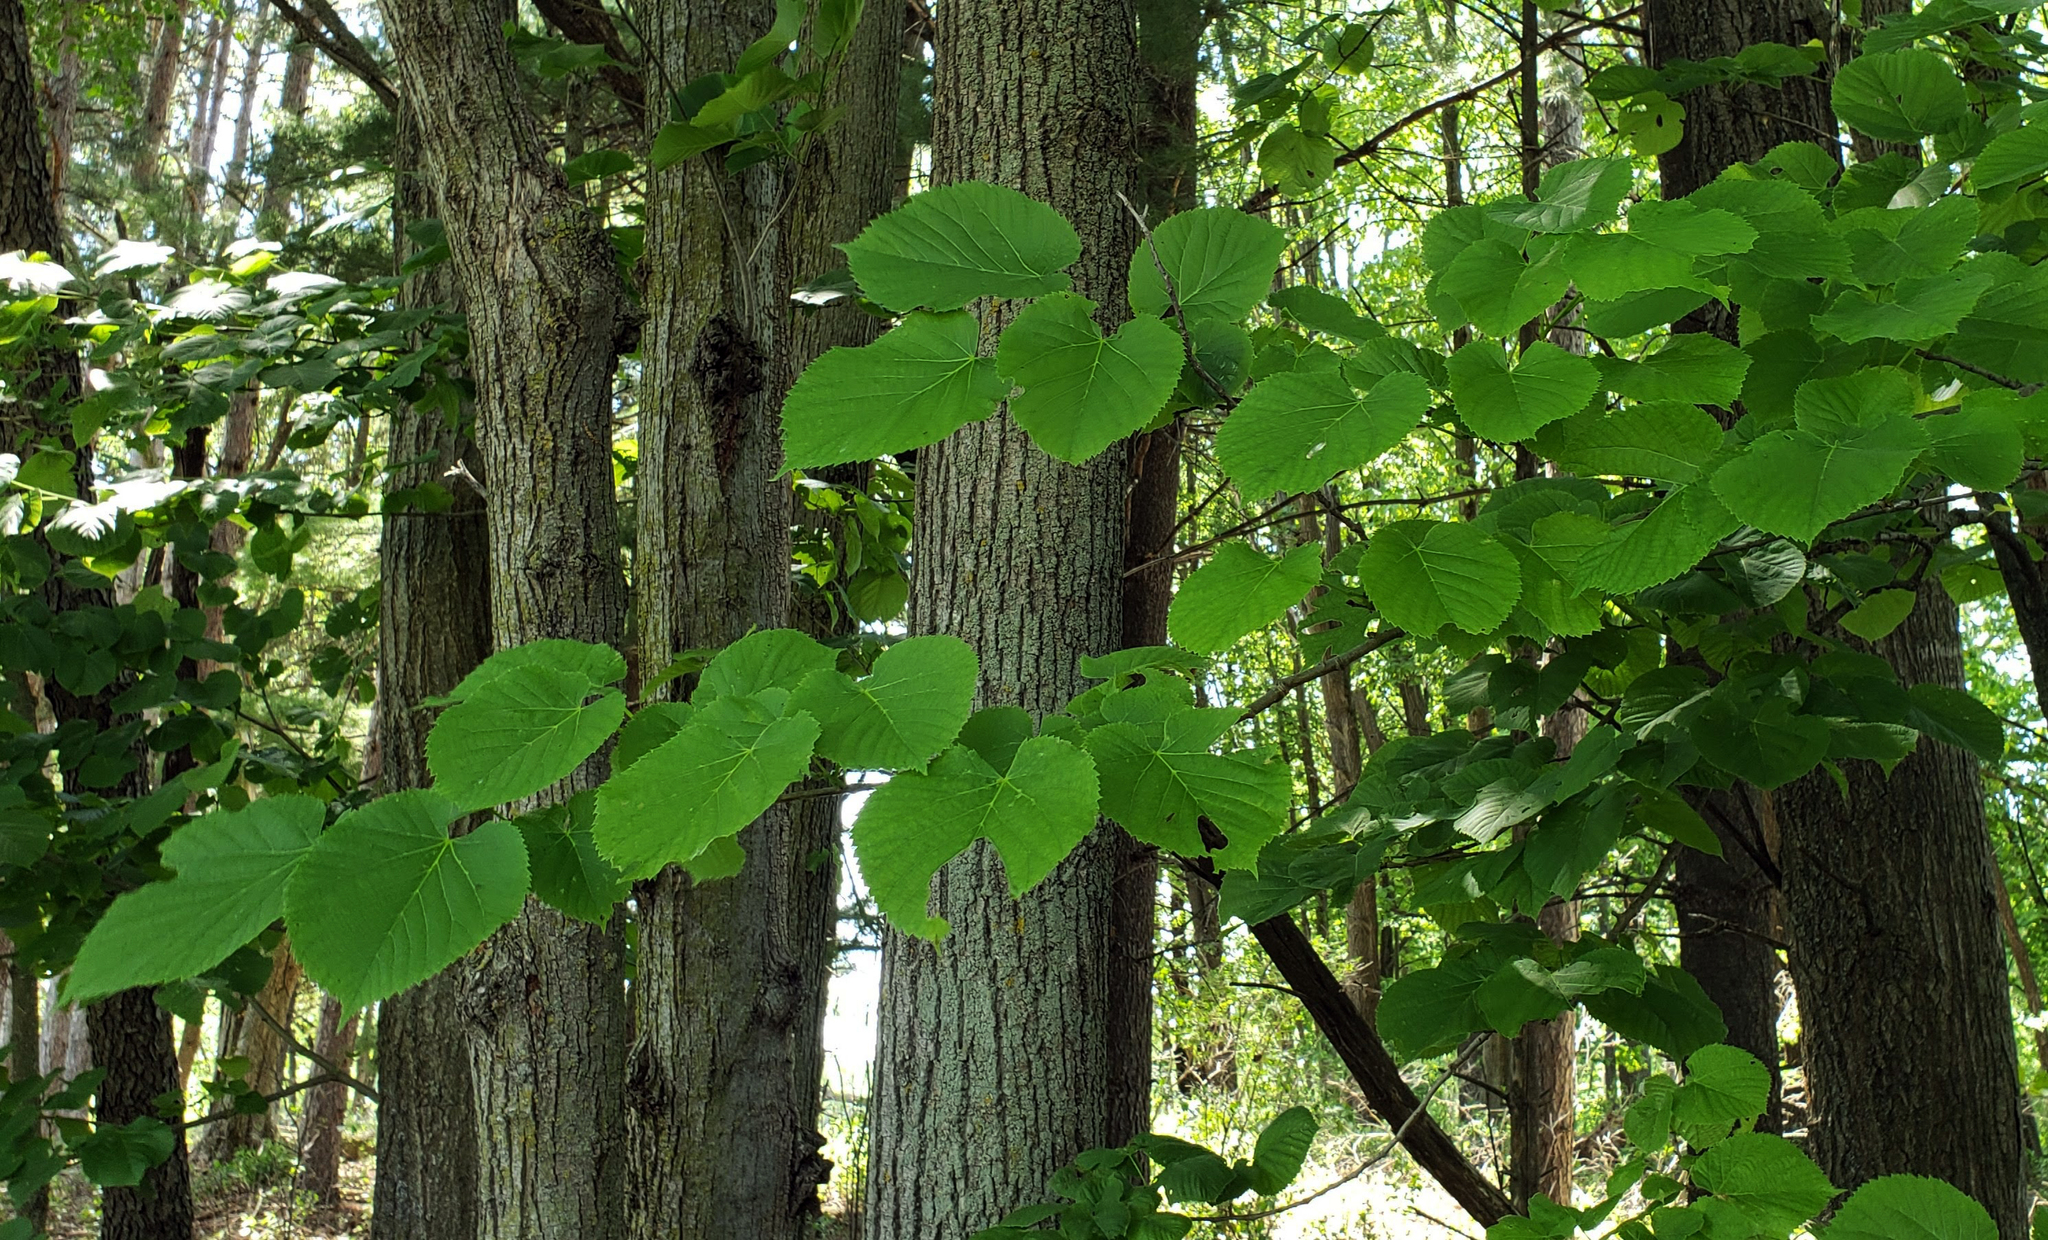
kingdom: Plantae
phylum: Tracheophyta
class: Magnoliopsida
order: Malvales
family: Malvaceae
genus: Tilia
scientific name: Tilia americana
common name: Basswood
